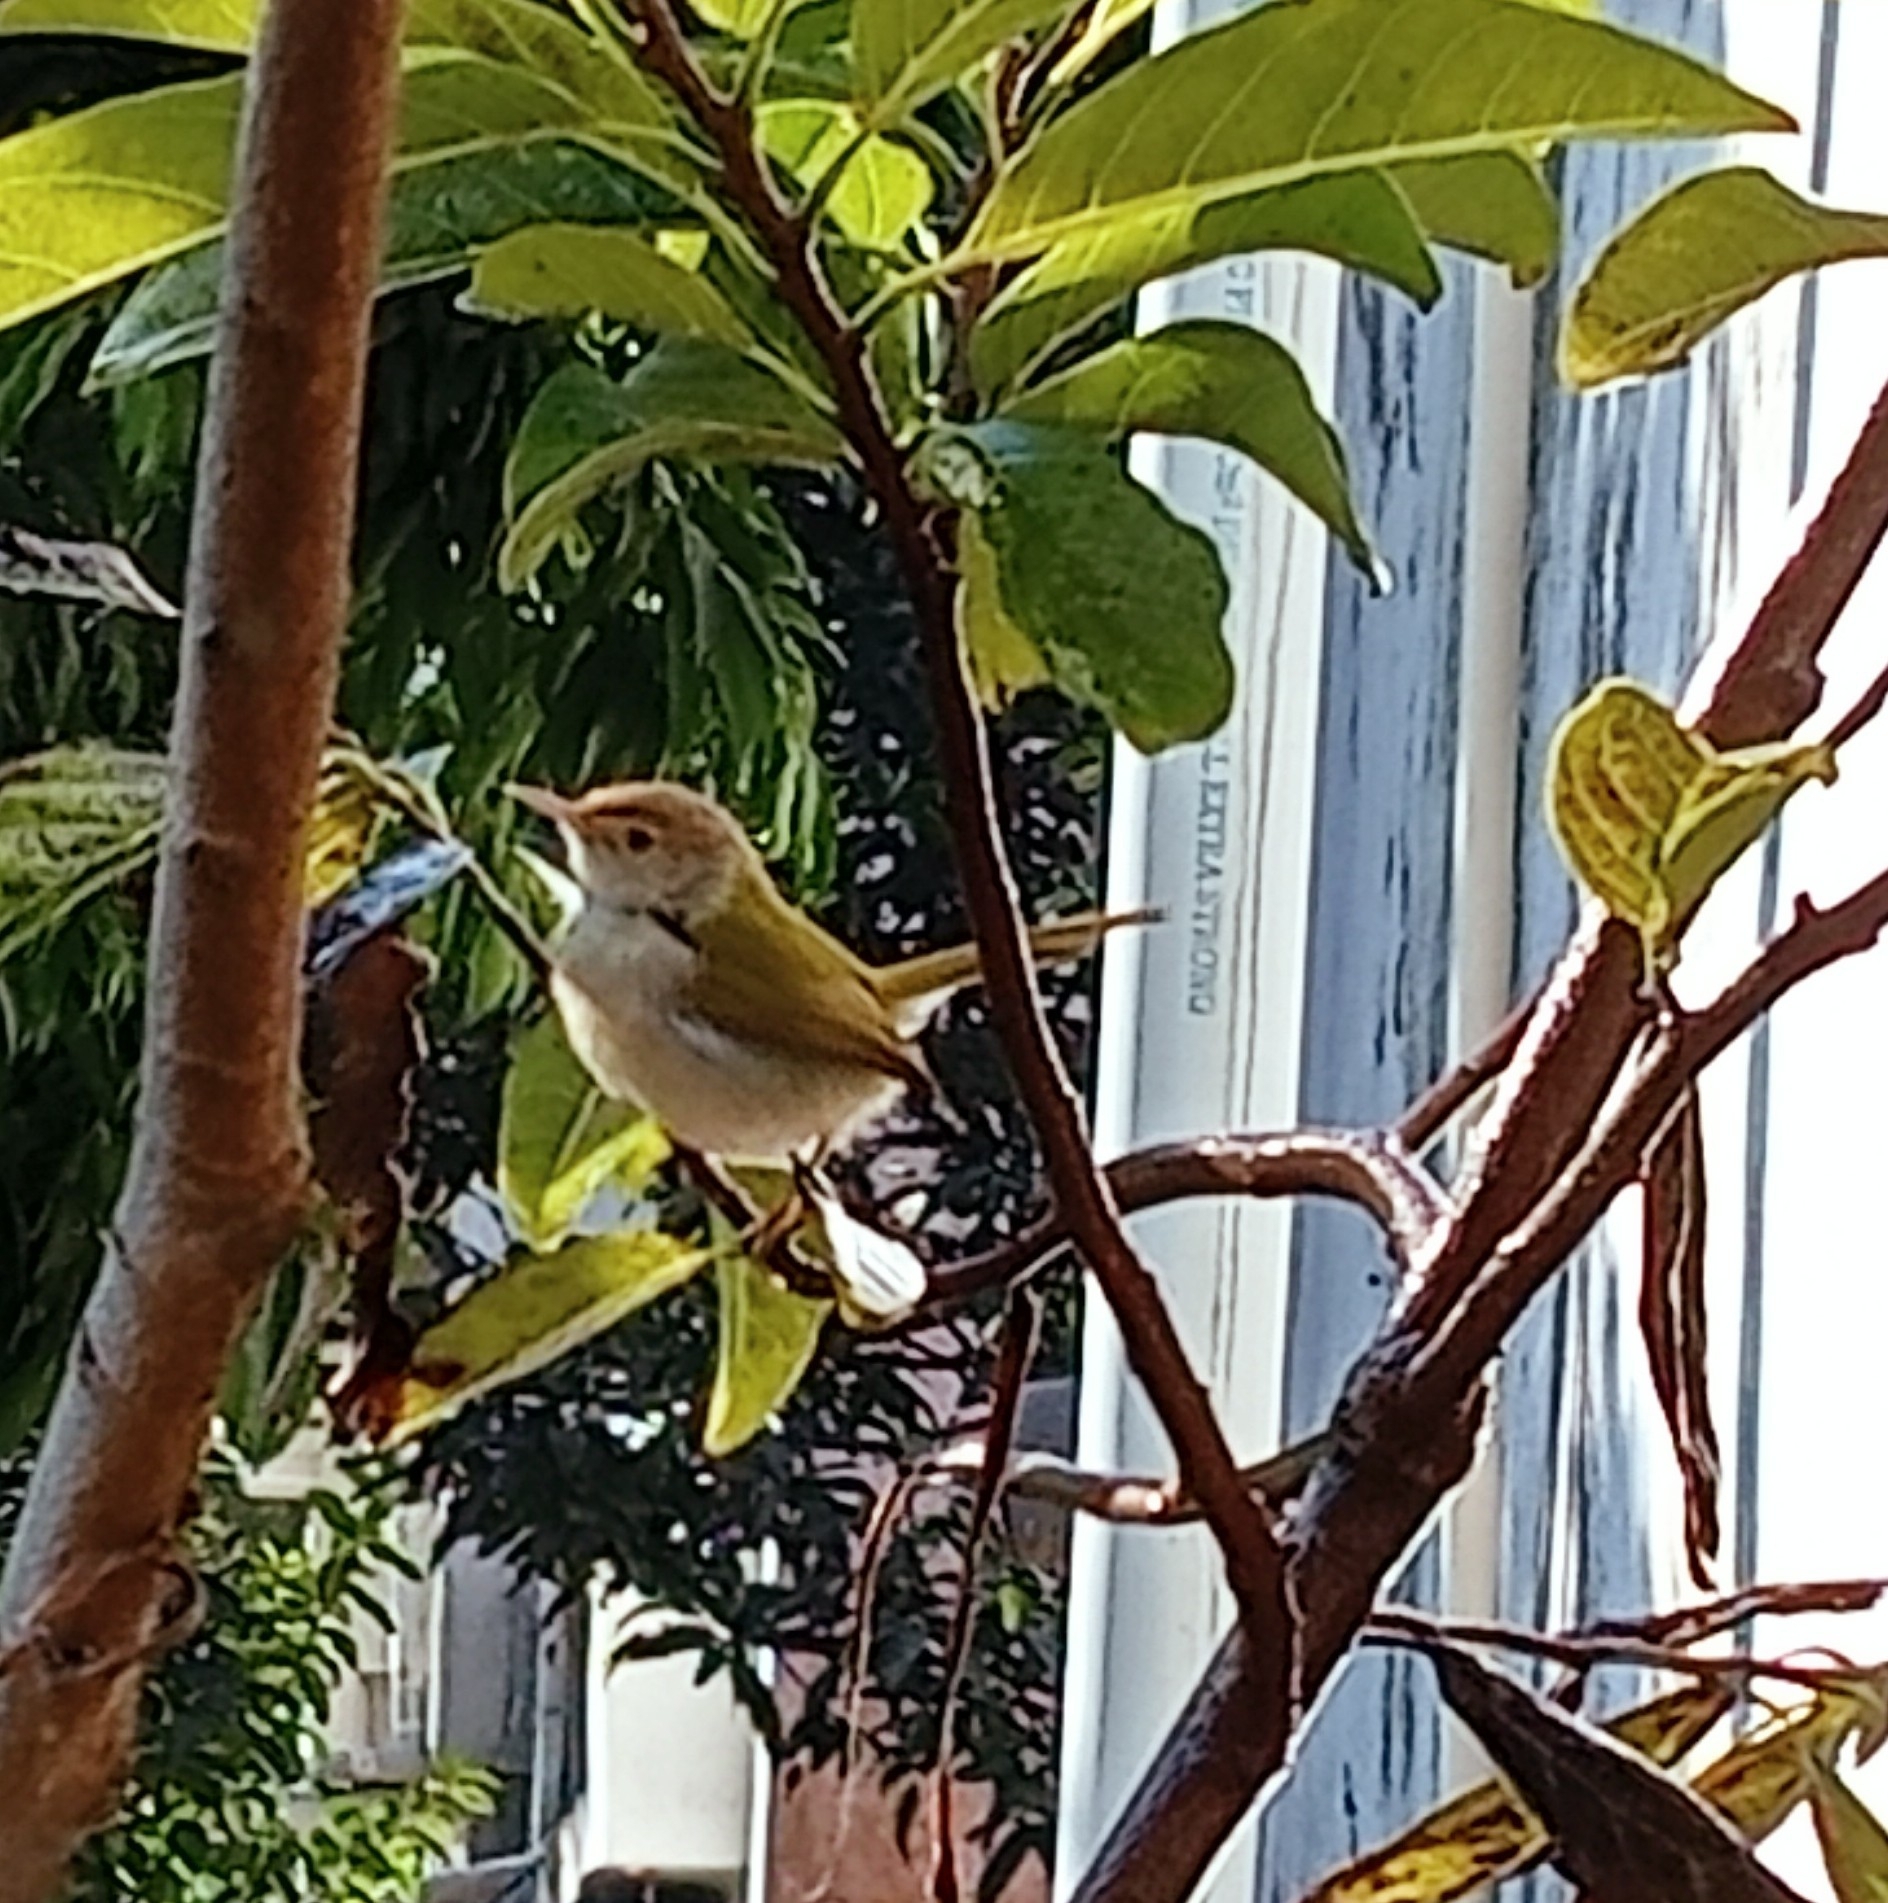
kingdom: Animalia
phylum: Chordata
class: Aves
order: Passeriformes
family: Cisticolidae
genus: Orthotomus
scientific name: Orthotomus sutorius
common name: Common tailorbird
